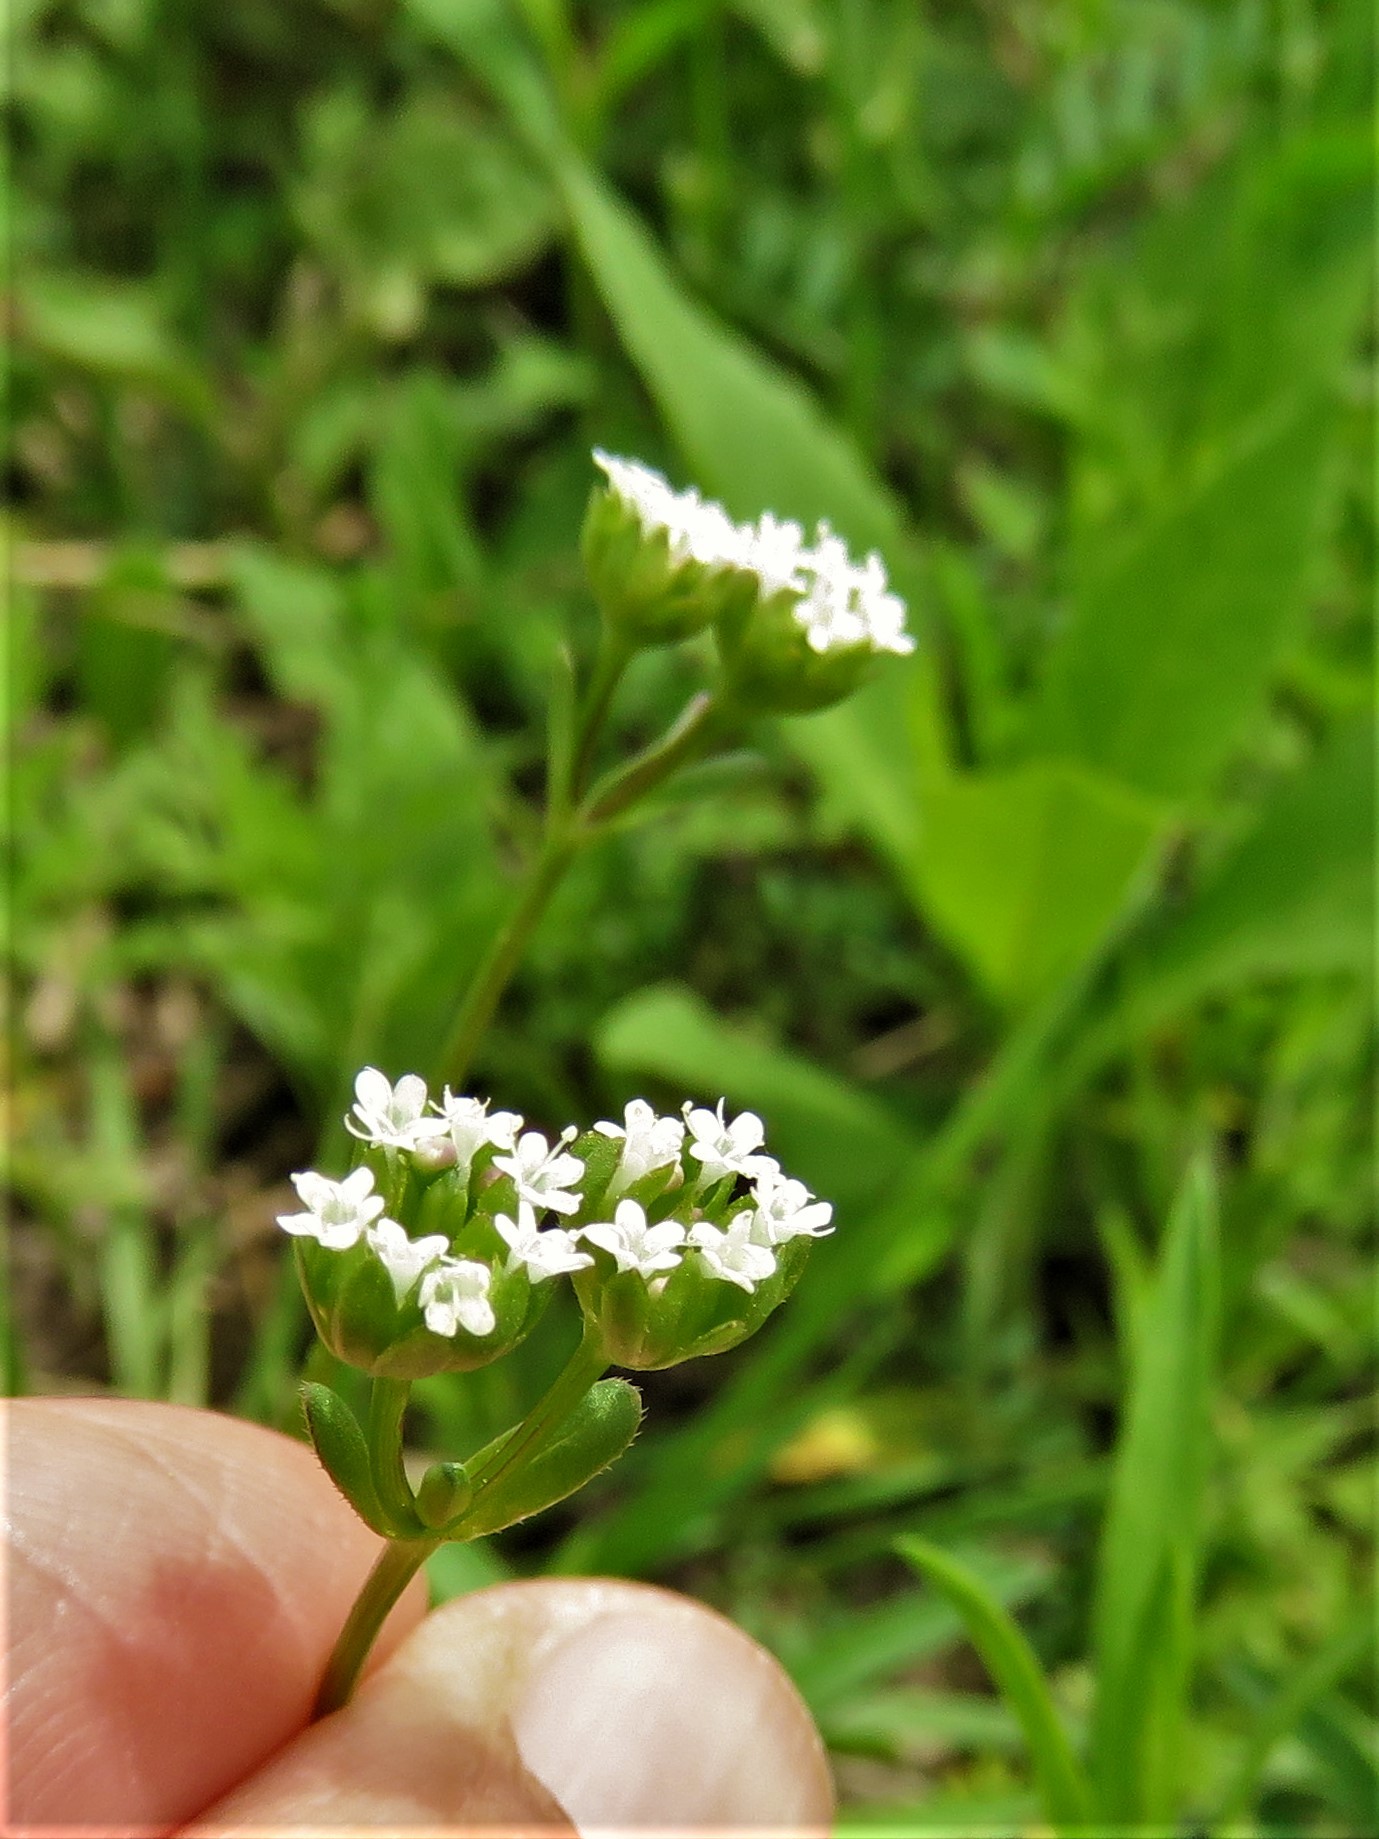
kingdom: Plantae
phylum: Tracheophyta
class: Magnoliopsida
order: Dipsacales
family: Caprifoliaceae
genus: Valerianella
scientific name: Valerianella radiata
